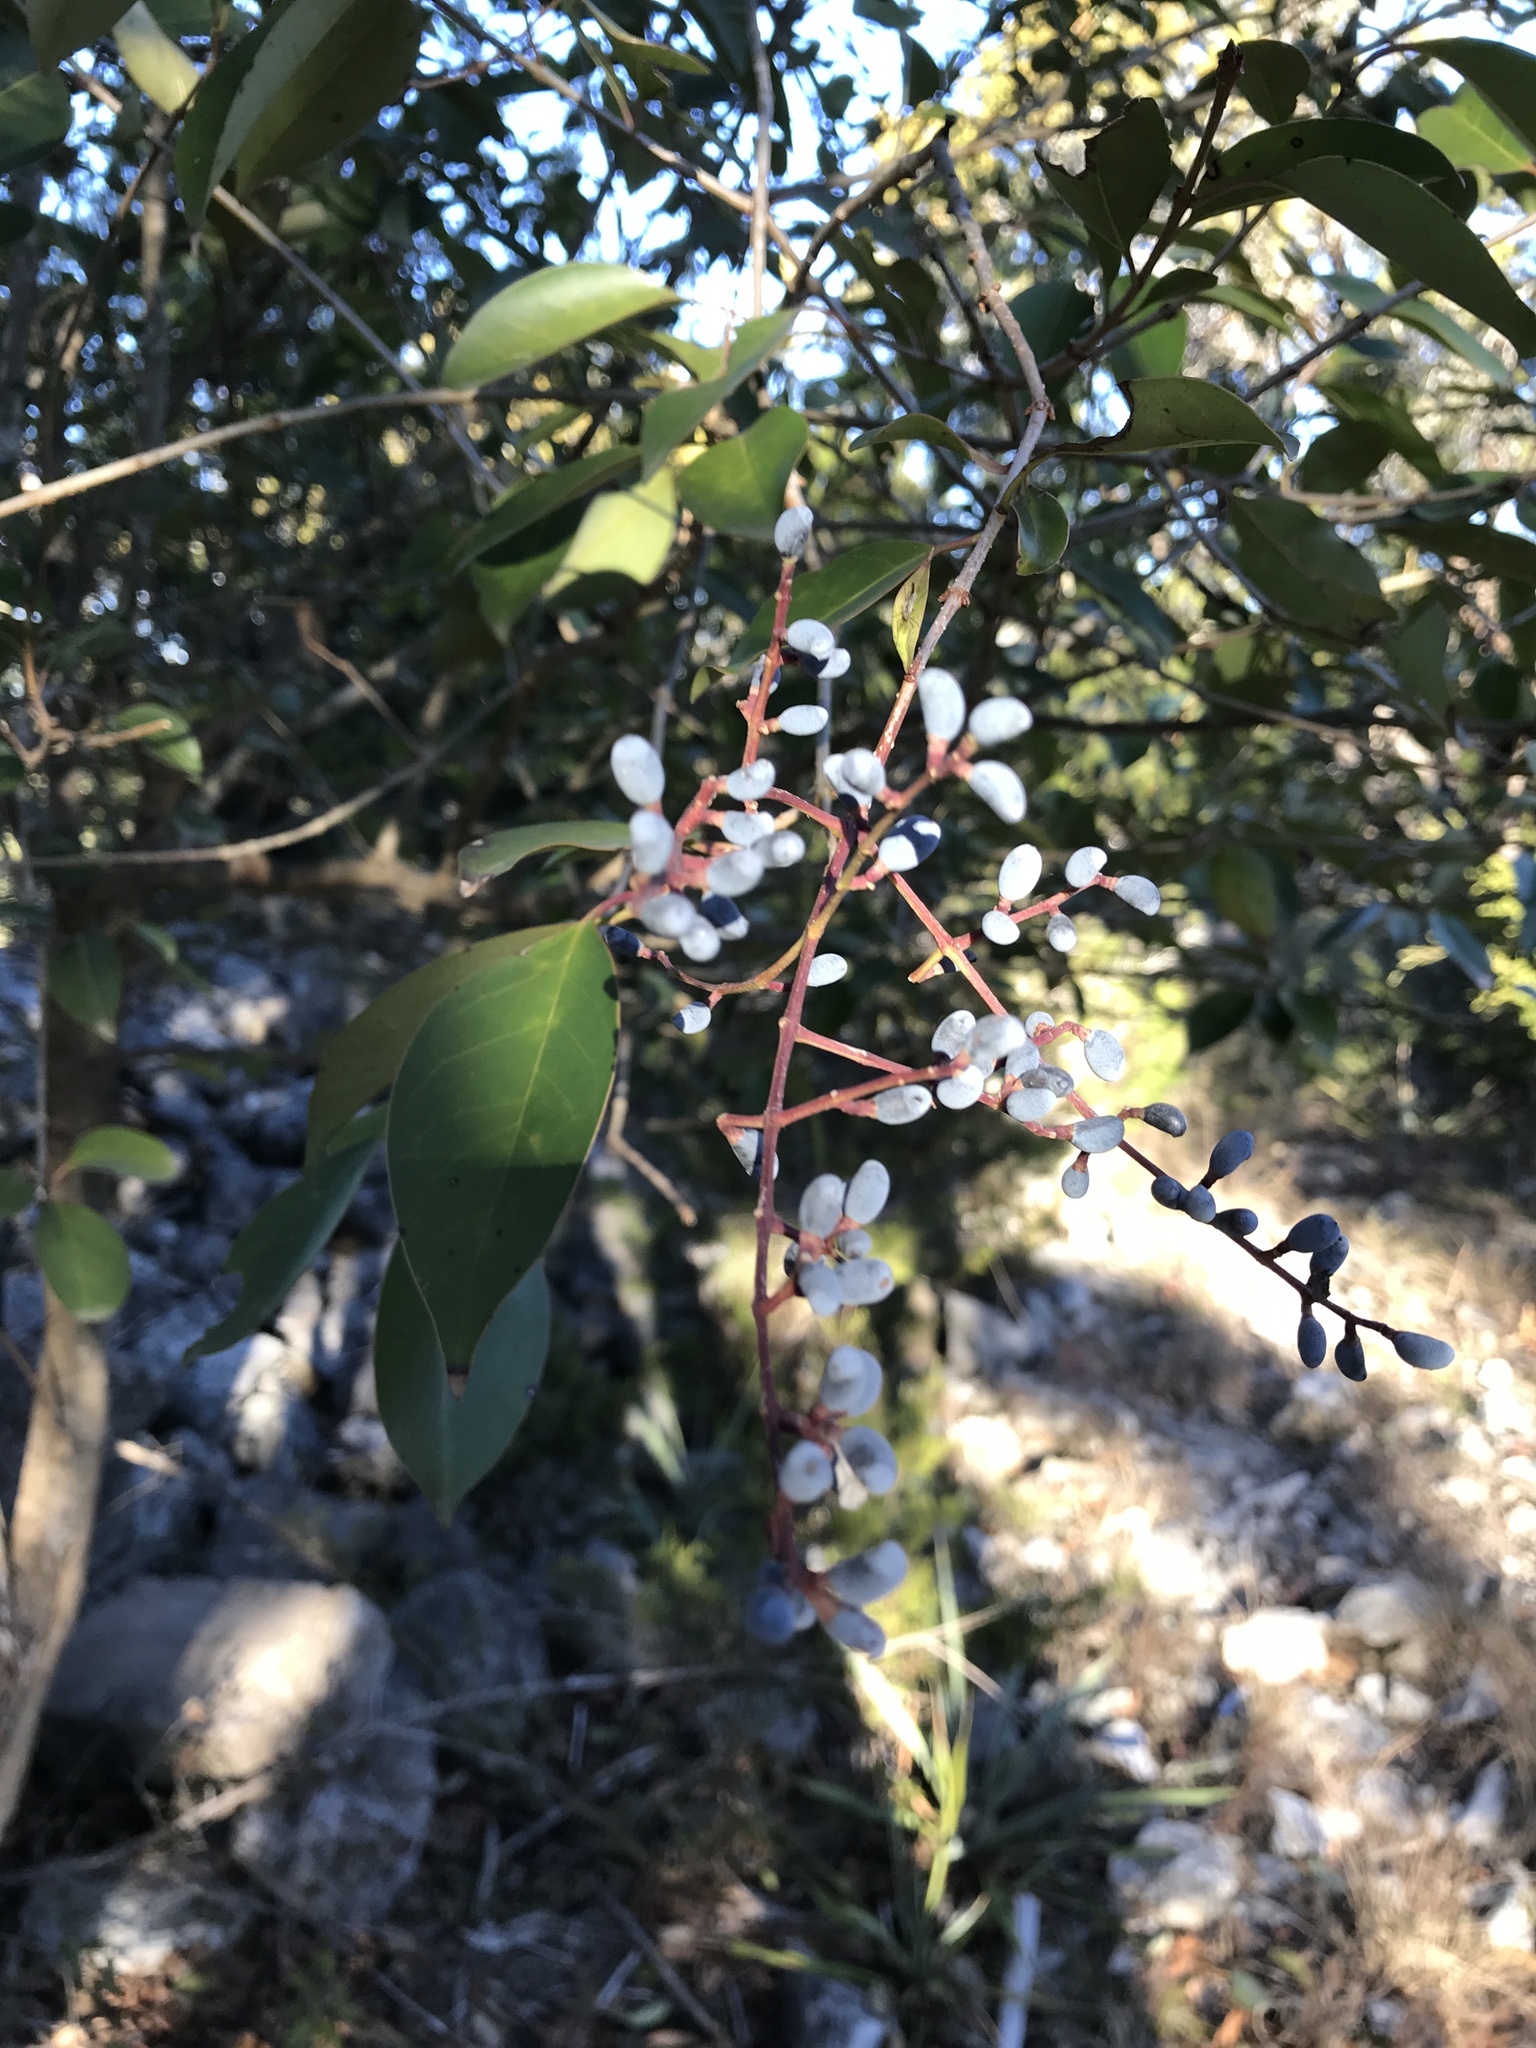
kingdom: Plantae
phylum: Tracheophyta
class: Magnoliopsida
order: Lamiales
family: Oleaceae
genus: Ligustrum
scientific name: Ligustrum lucidum
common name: Glossy privet
